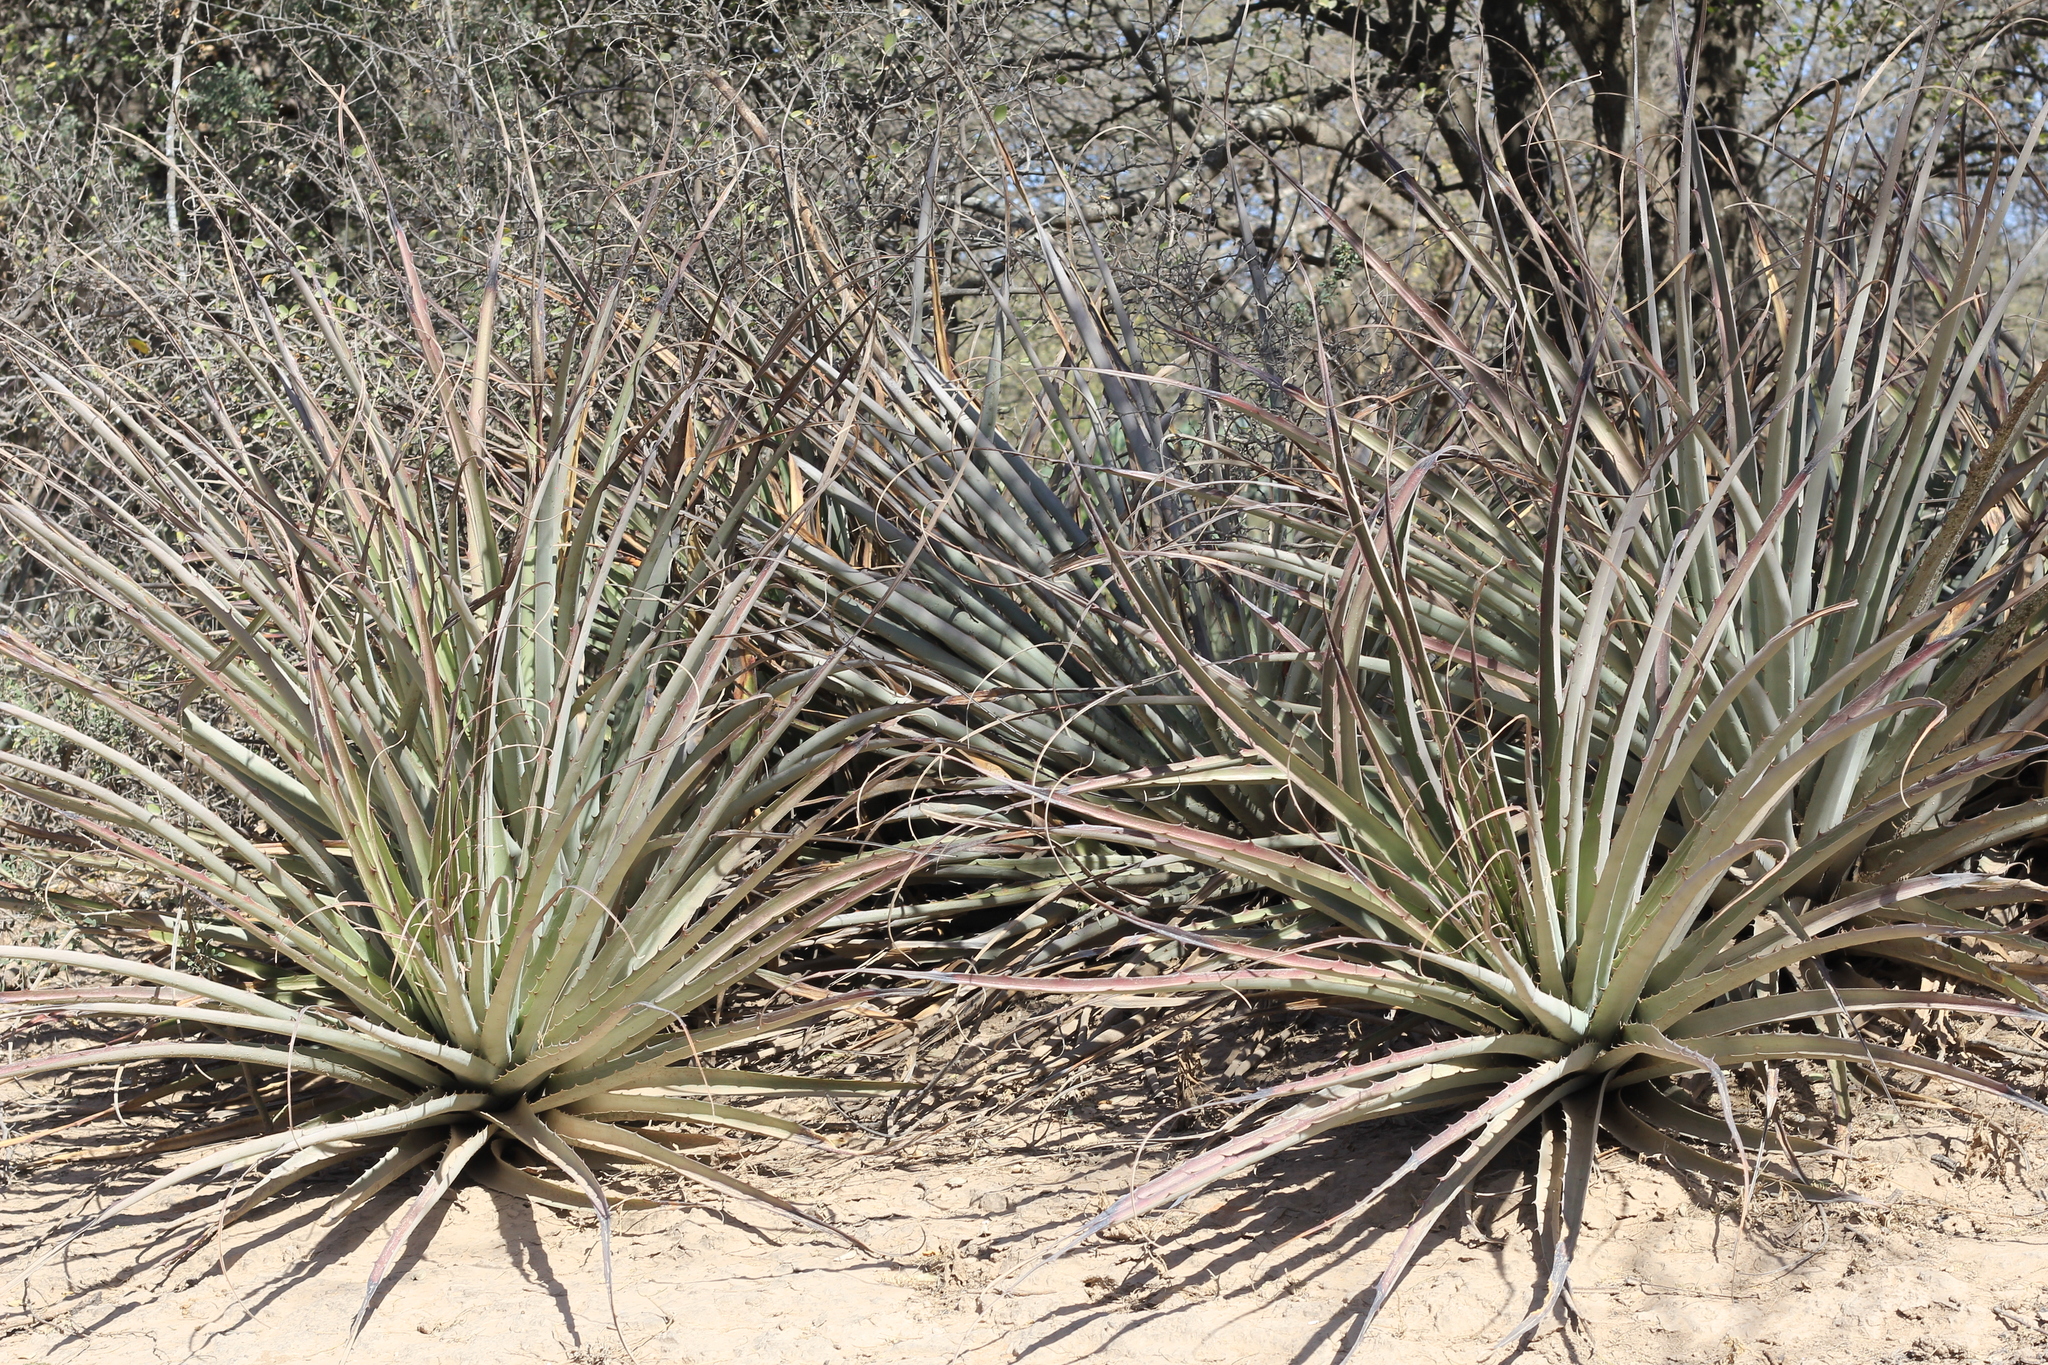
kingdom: Plantae
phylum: Tracheophyta
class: Liliopsida
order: Poales
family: Bromeliaceae
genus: Bromelia
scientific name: Bromelia hieronymi
